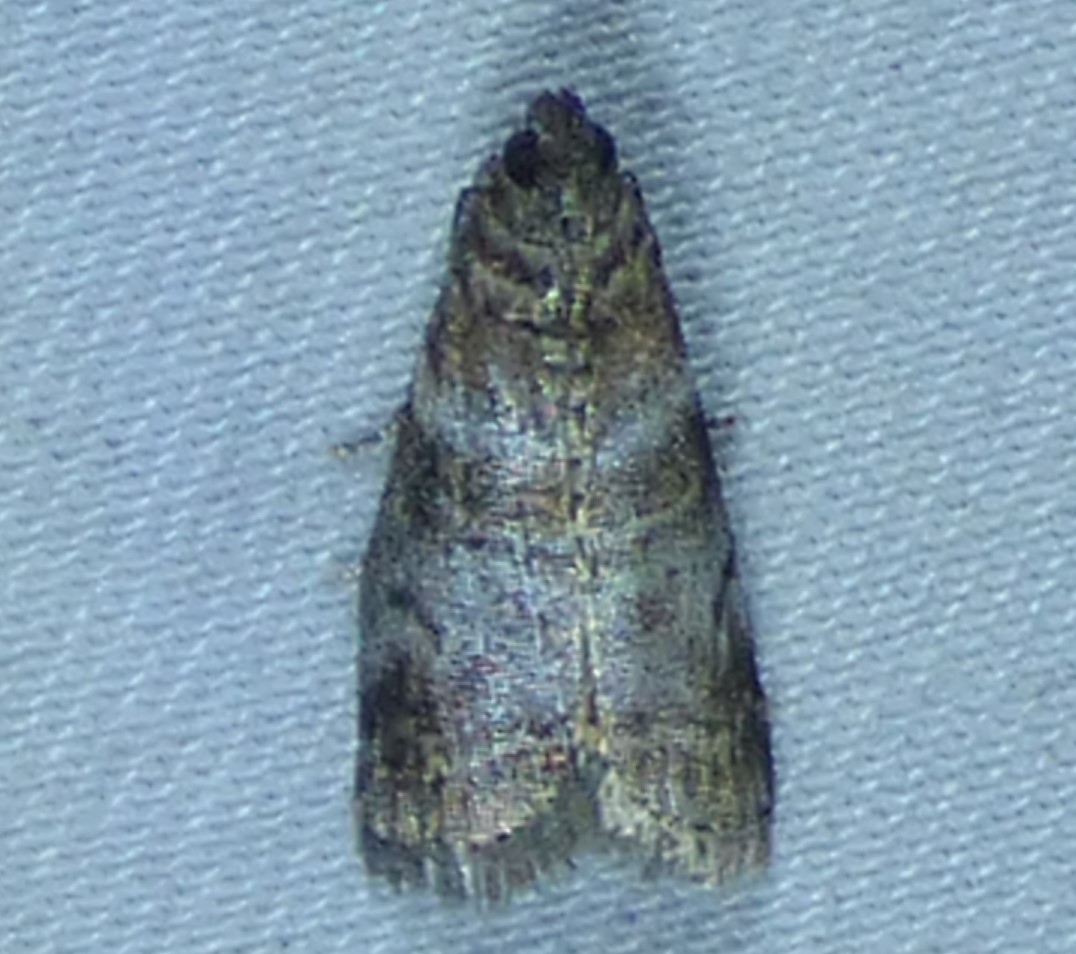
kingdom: Animalia
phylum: Arthropoda
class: Insecta
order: Lepidoptera
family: Pyralidae
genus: Sciota
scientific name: Sciota uvinella
